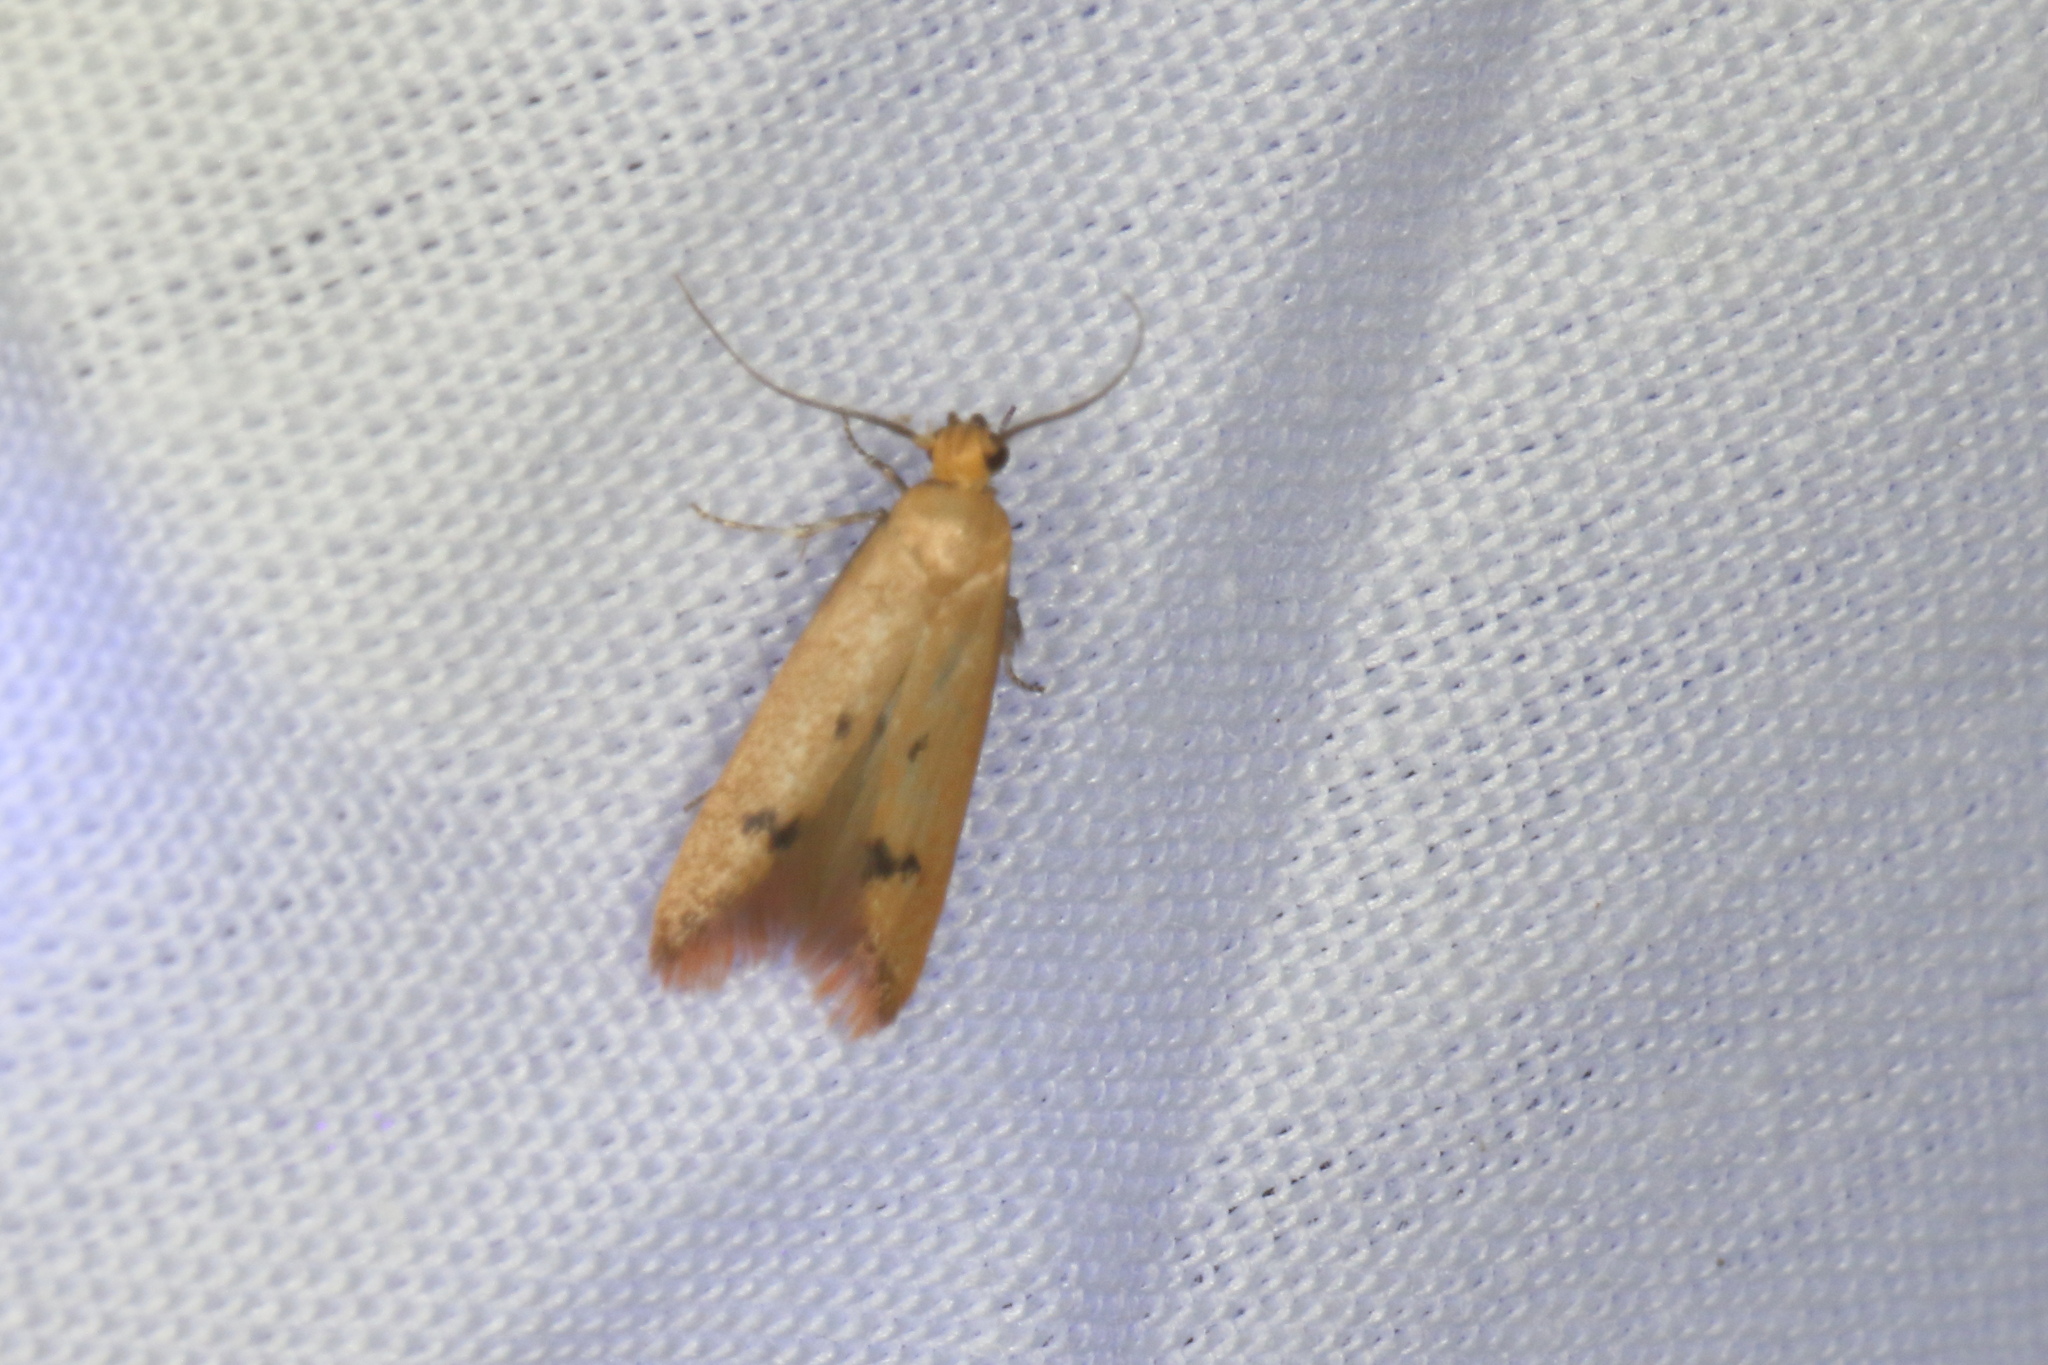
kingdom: Animalia
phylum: Arthropoda
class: Insecta
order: Lepidoptera
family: Oecophoridae
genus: Tachystola
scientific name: Tachystola hemisema
